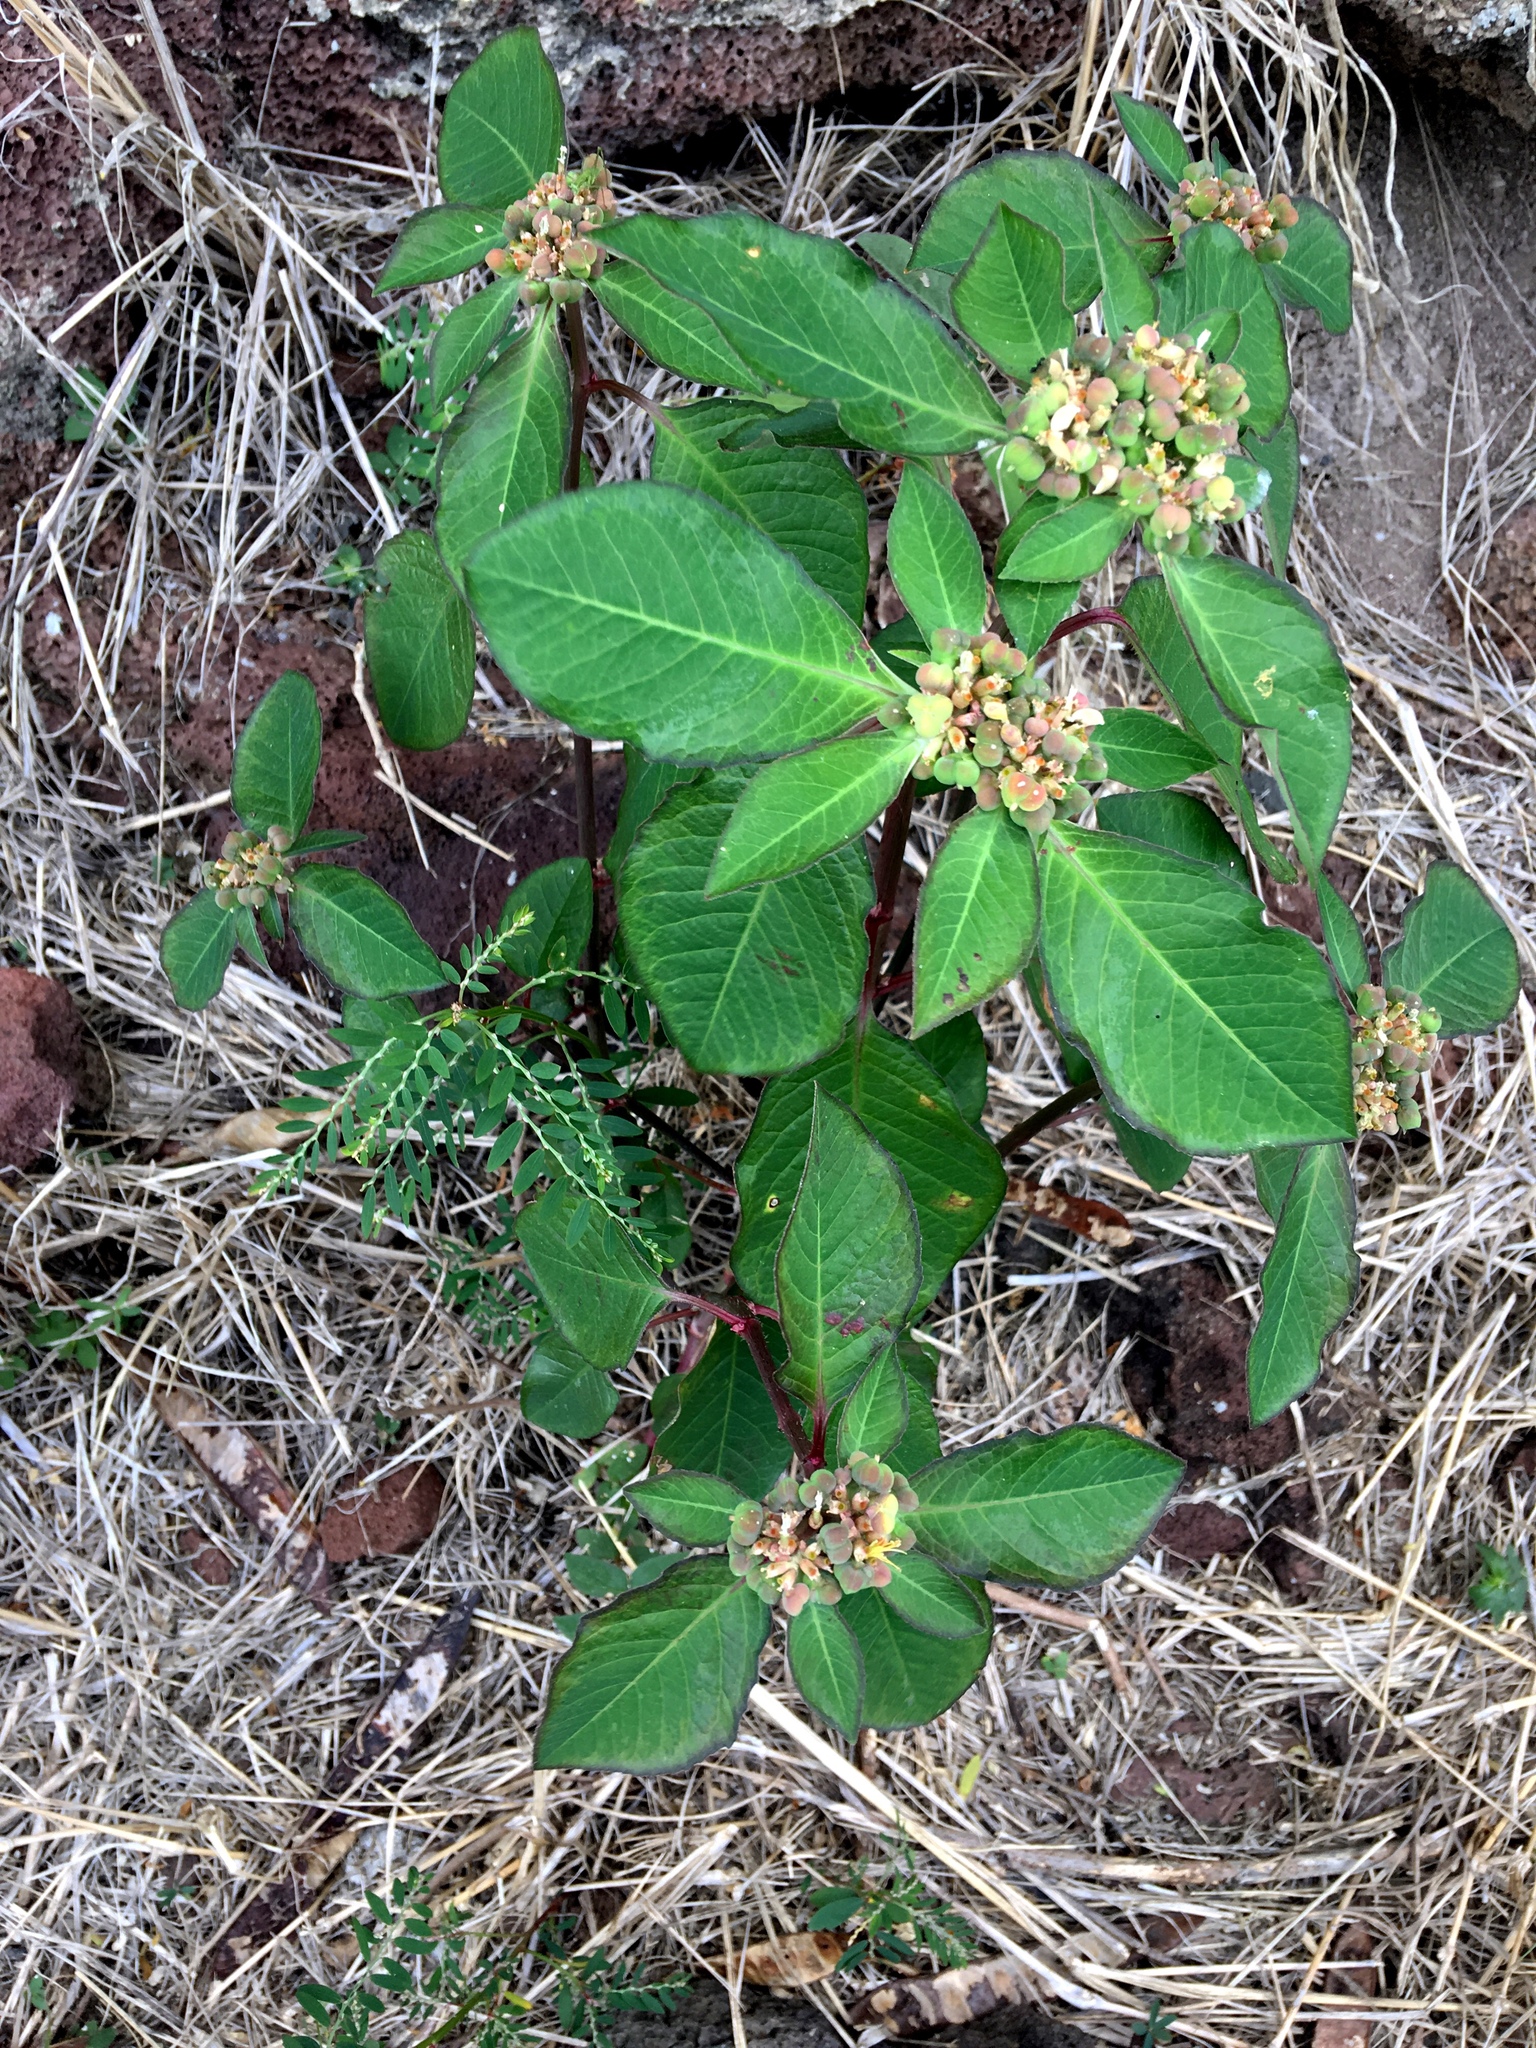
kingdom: Plantae
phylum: Tracheophyta
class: Magnoliopsida
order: Malpighiales
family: Euphorbiaceae
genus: Euphorbia
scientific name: Euphorbia heterophylla
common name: Mexican fireplant
